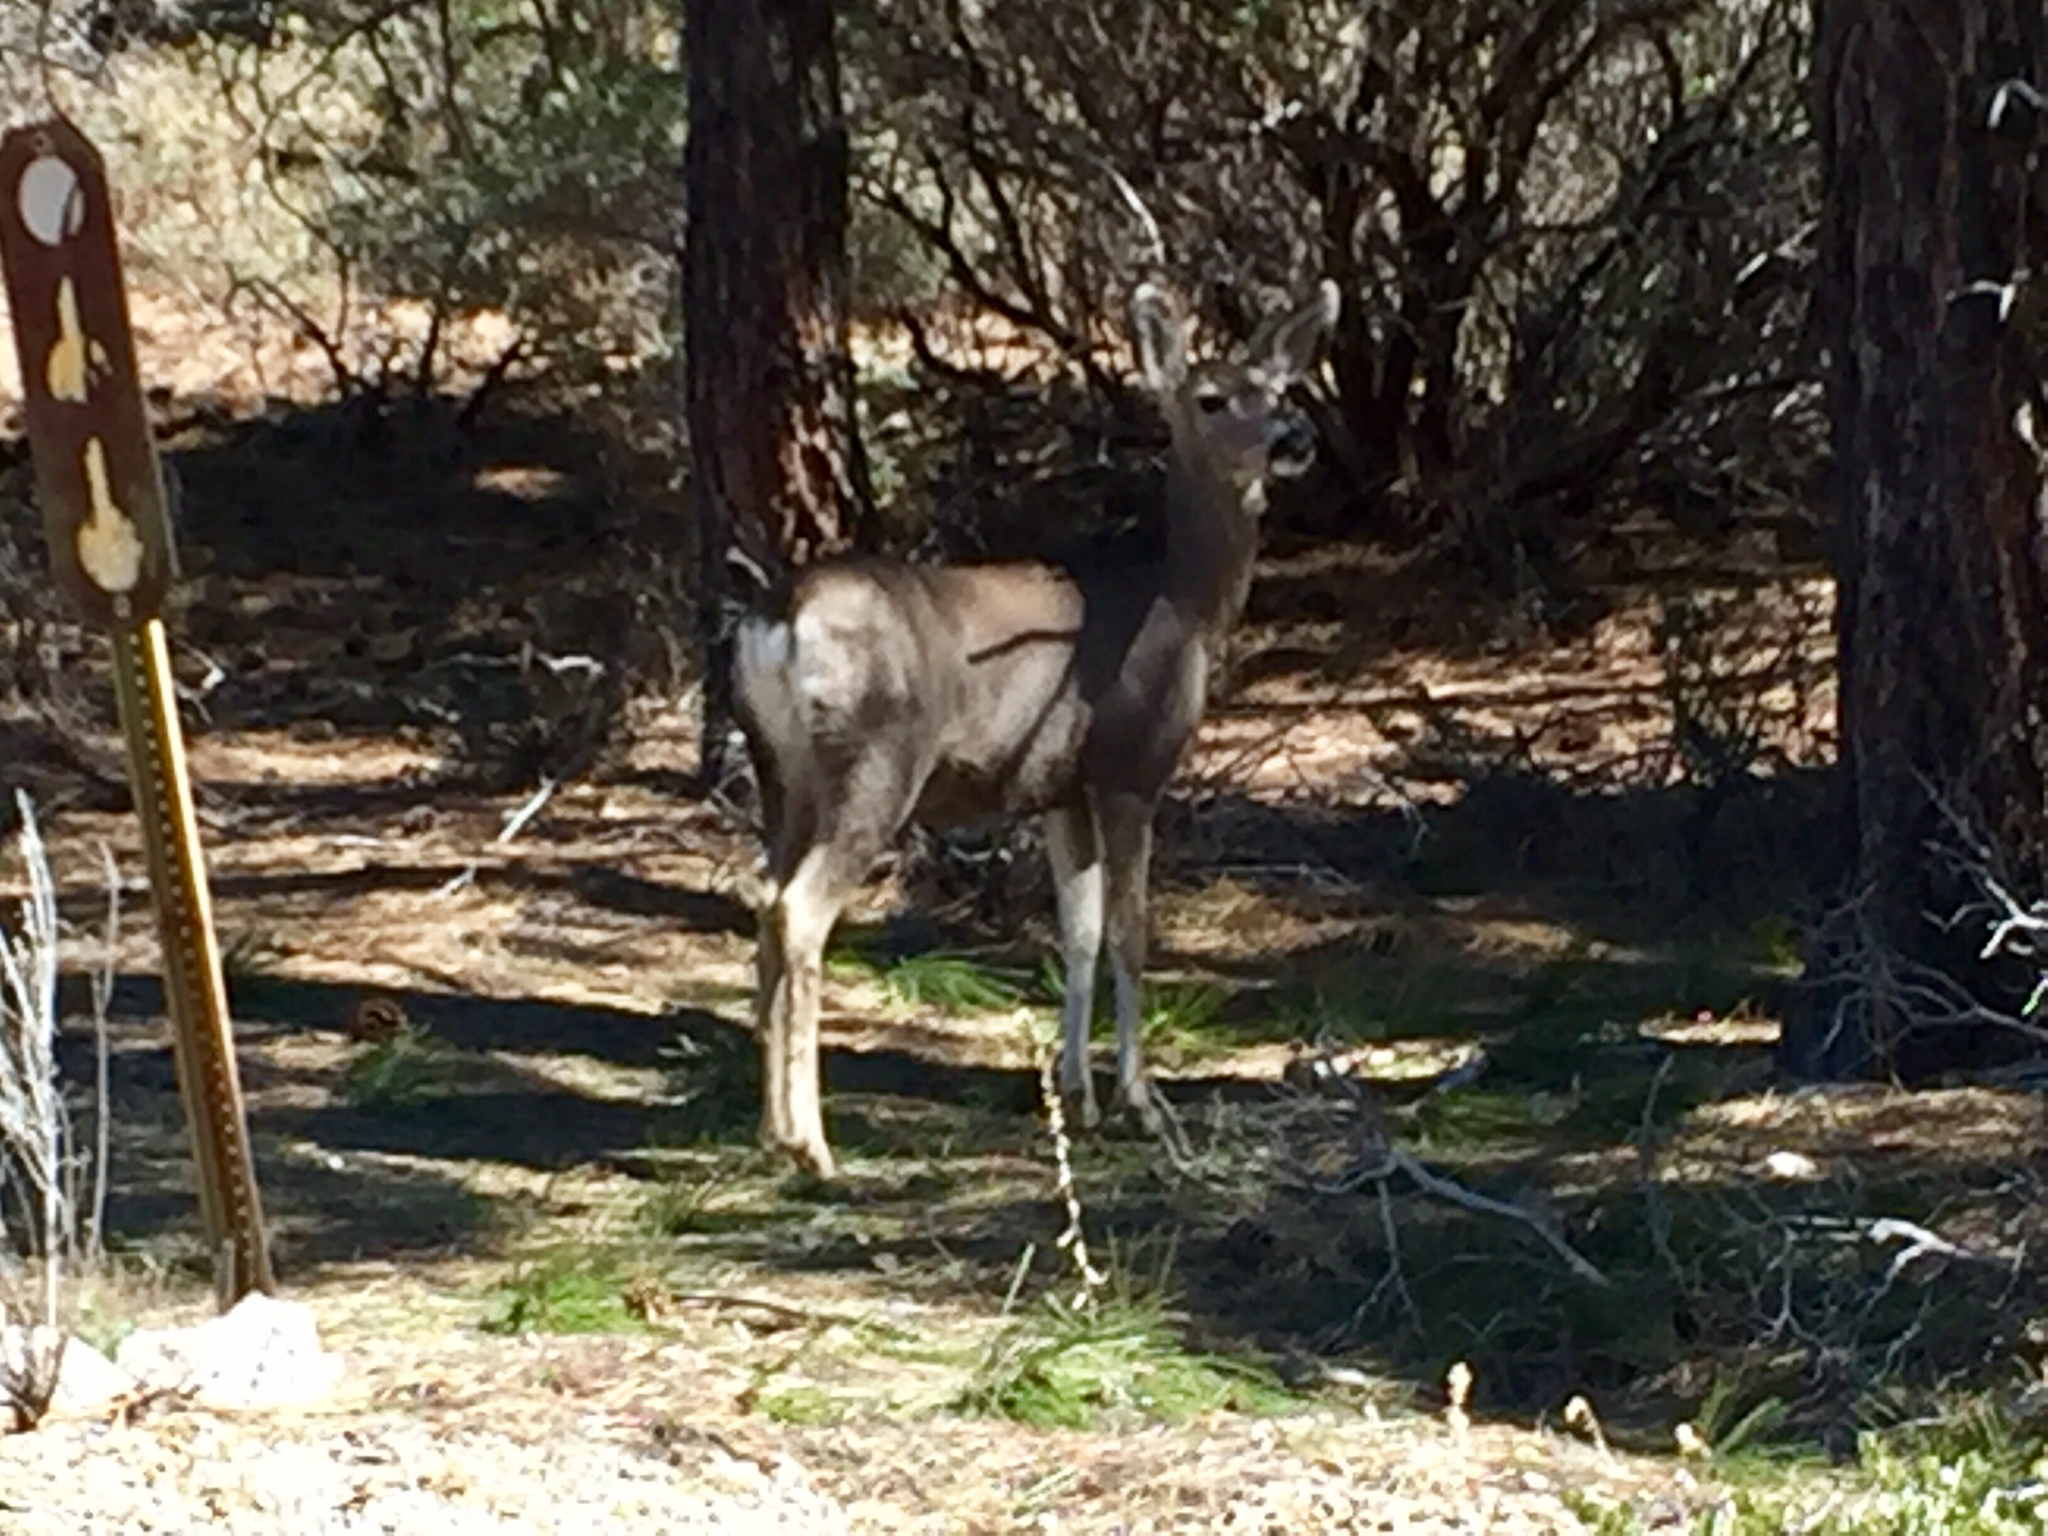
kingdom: Animalia
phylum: Chordata
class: Mammalia
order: Artiodactyla
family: Cervidae
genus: Odocoileus
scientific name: Odocoileus hemionus
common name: Mule deer
